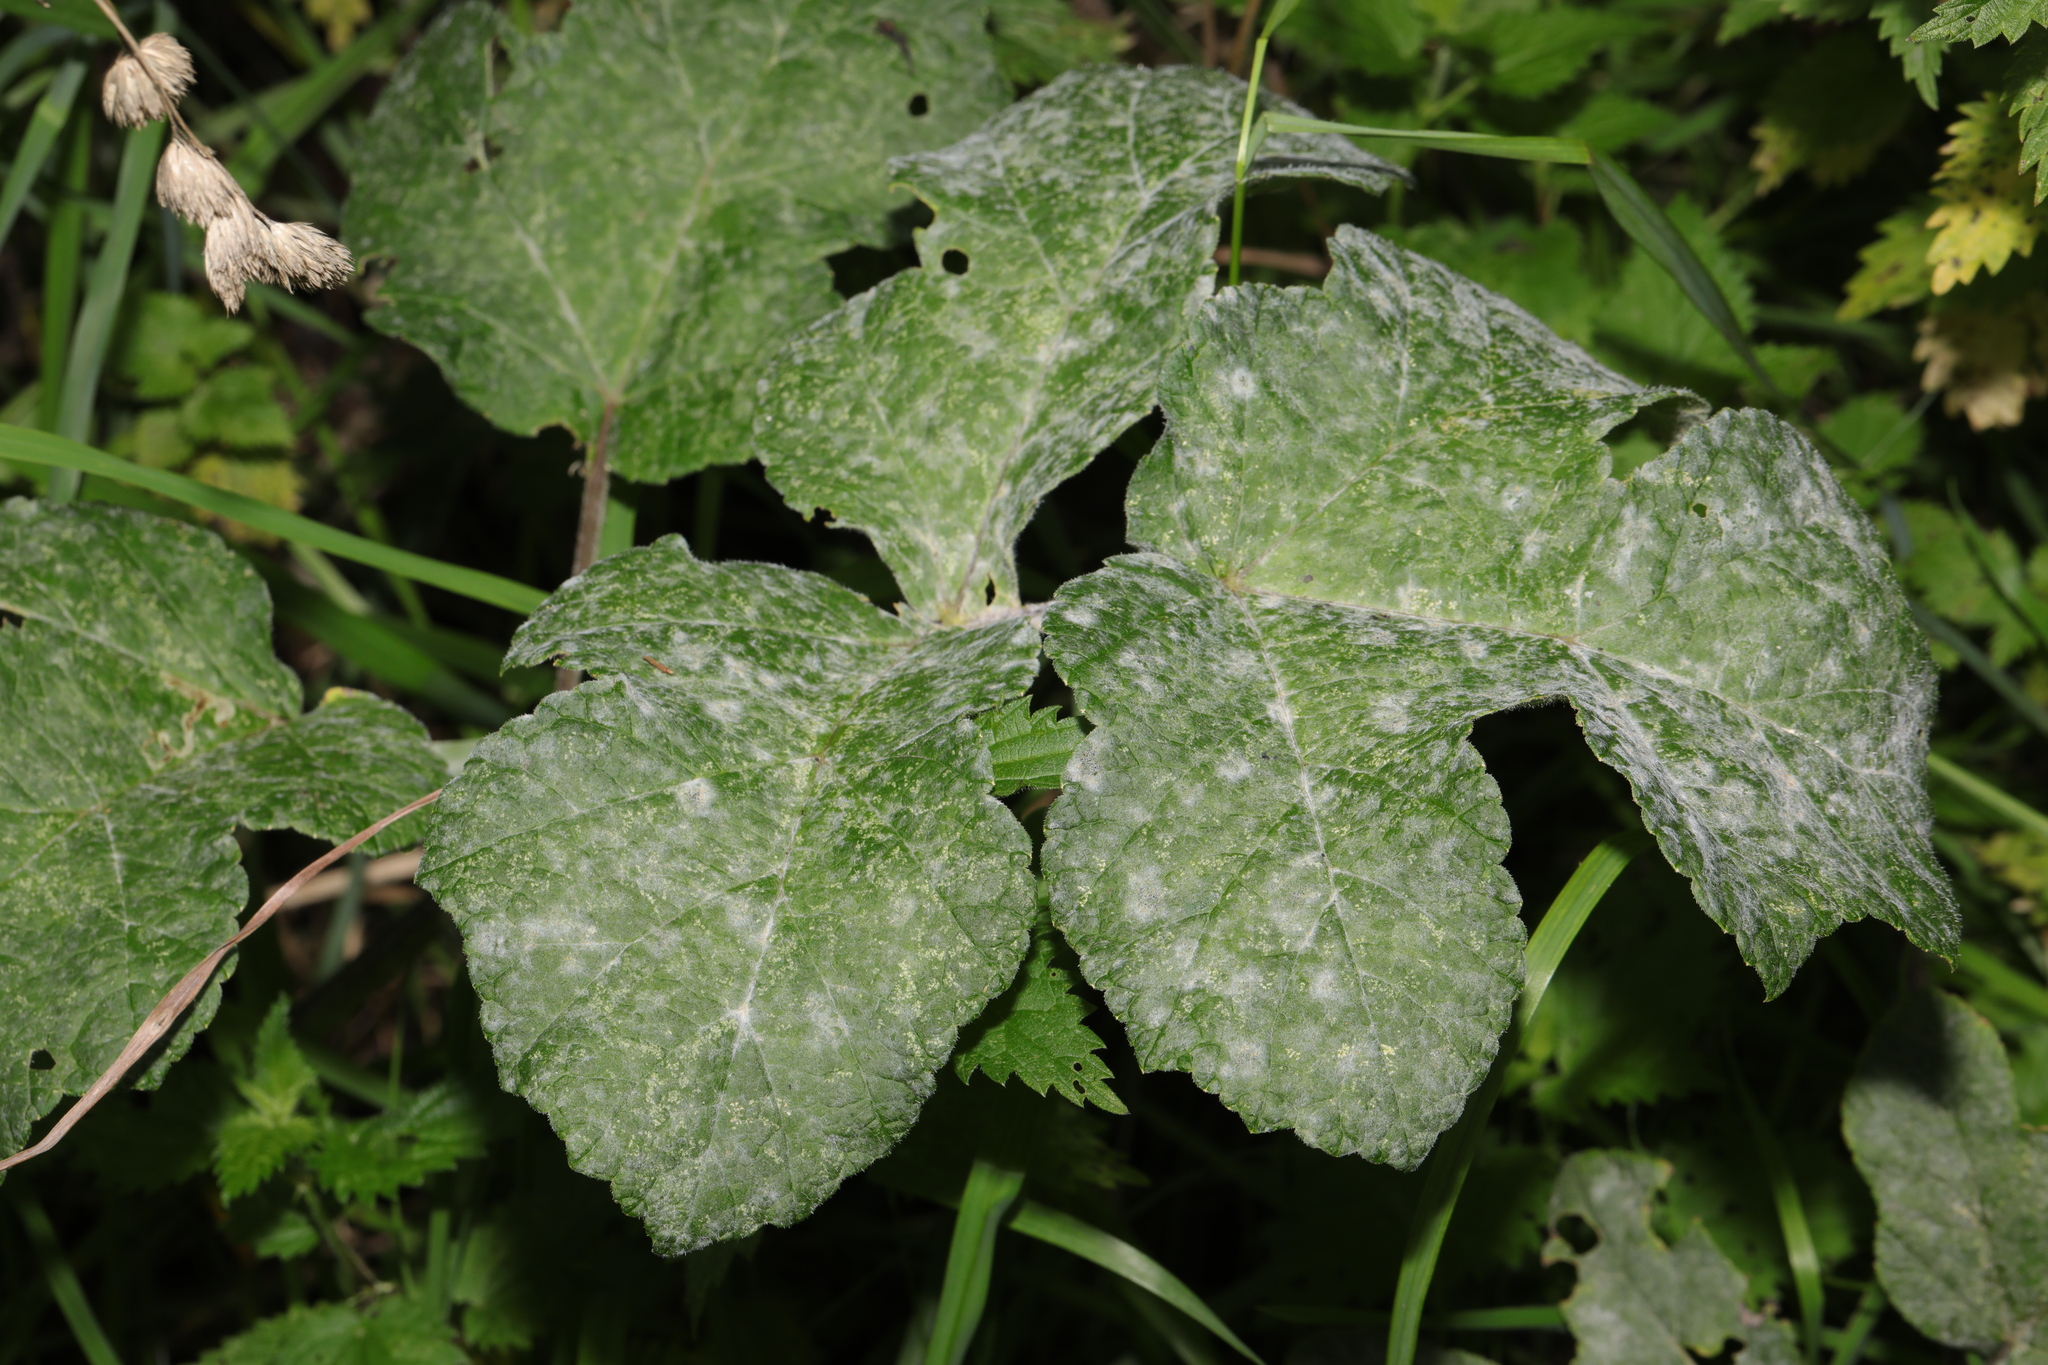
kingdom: Plantae
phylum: Tracheophyta
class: Magnoliopsida
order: Apiales
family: Apiaceae
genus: Heracleum
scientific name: Heracleum sphondylium
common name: Hogweed
